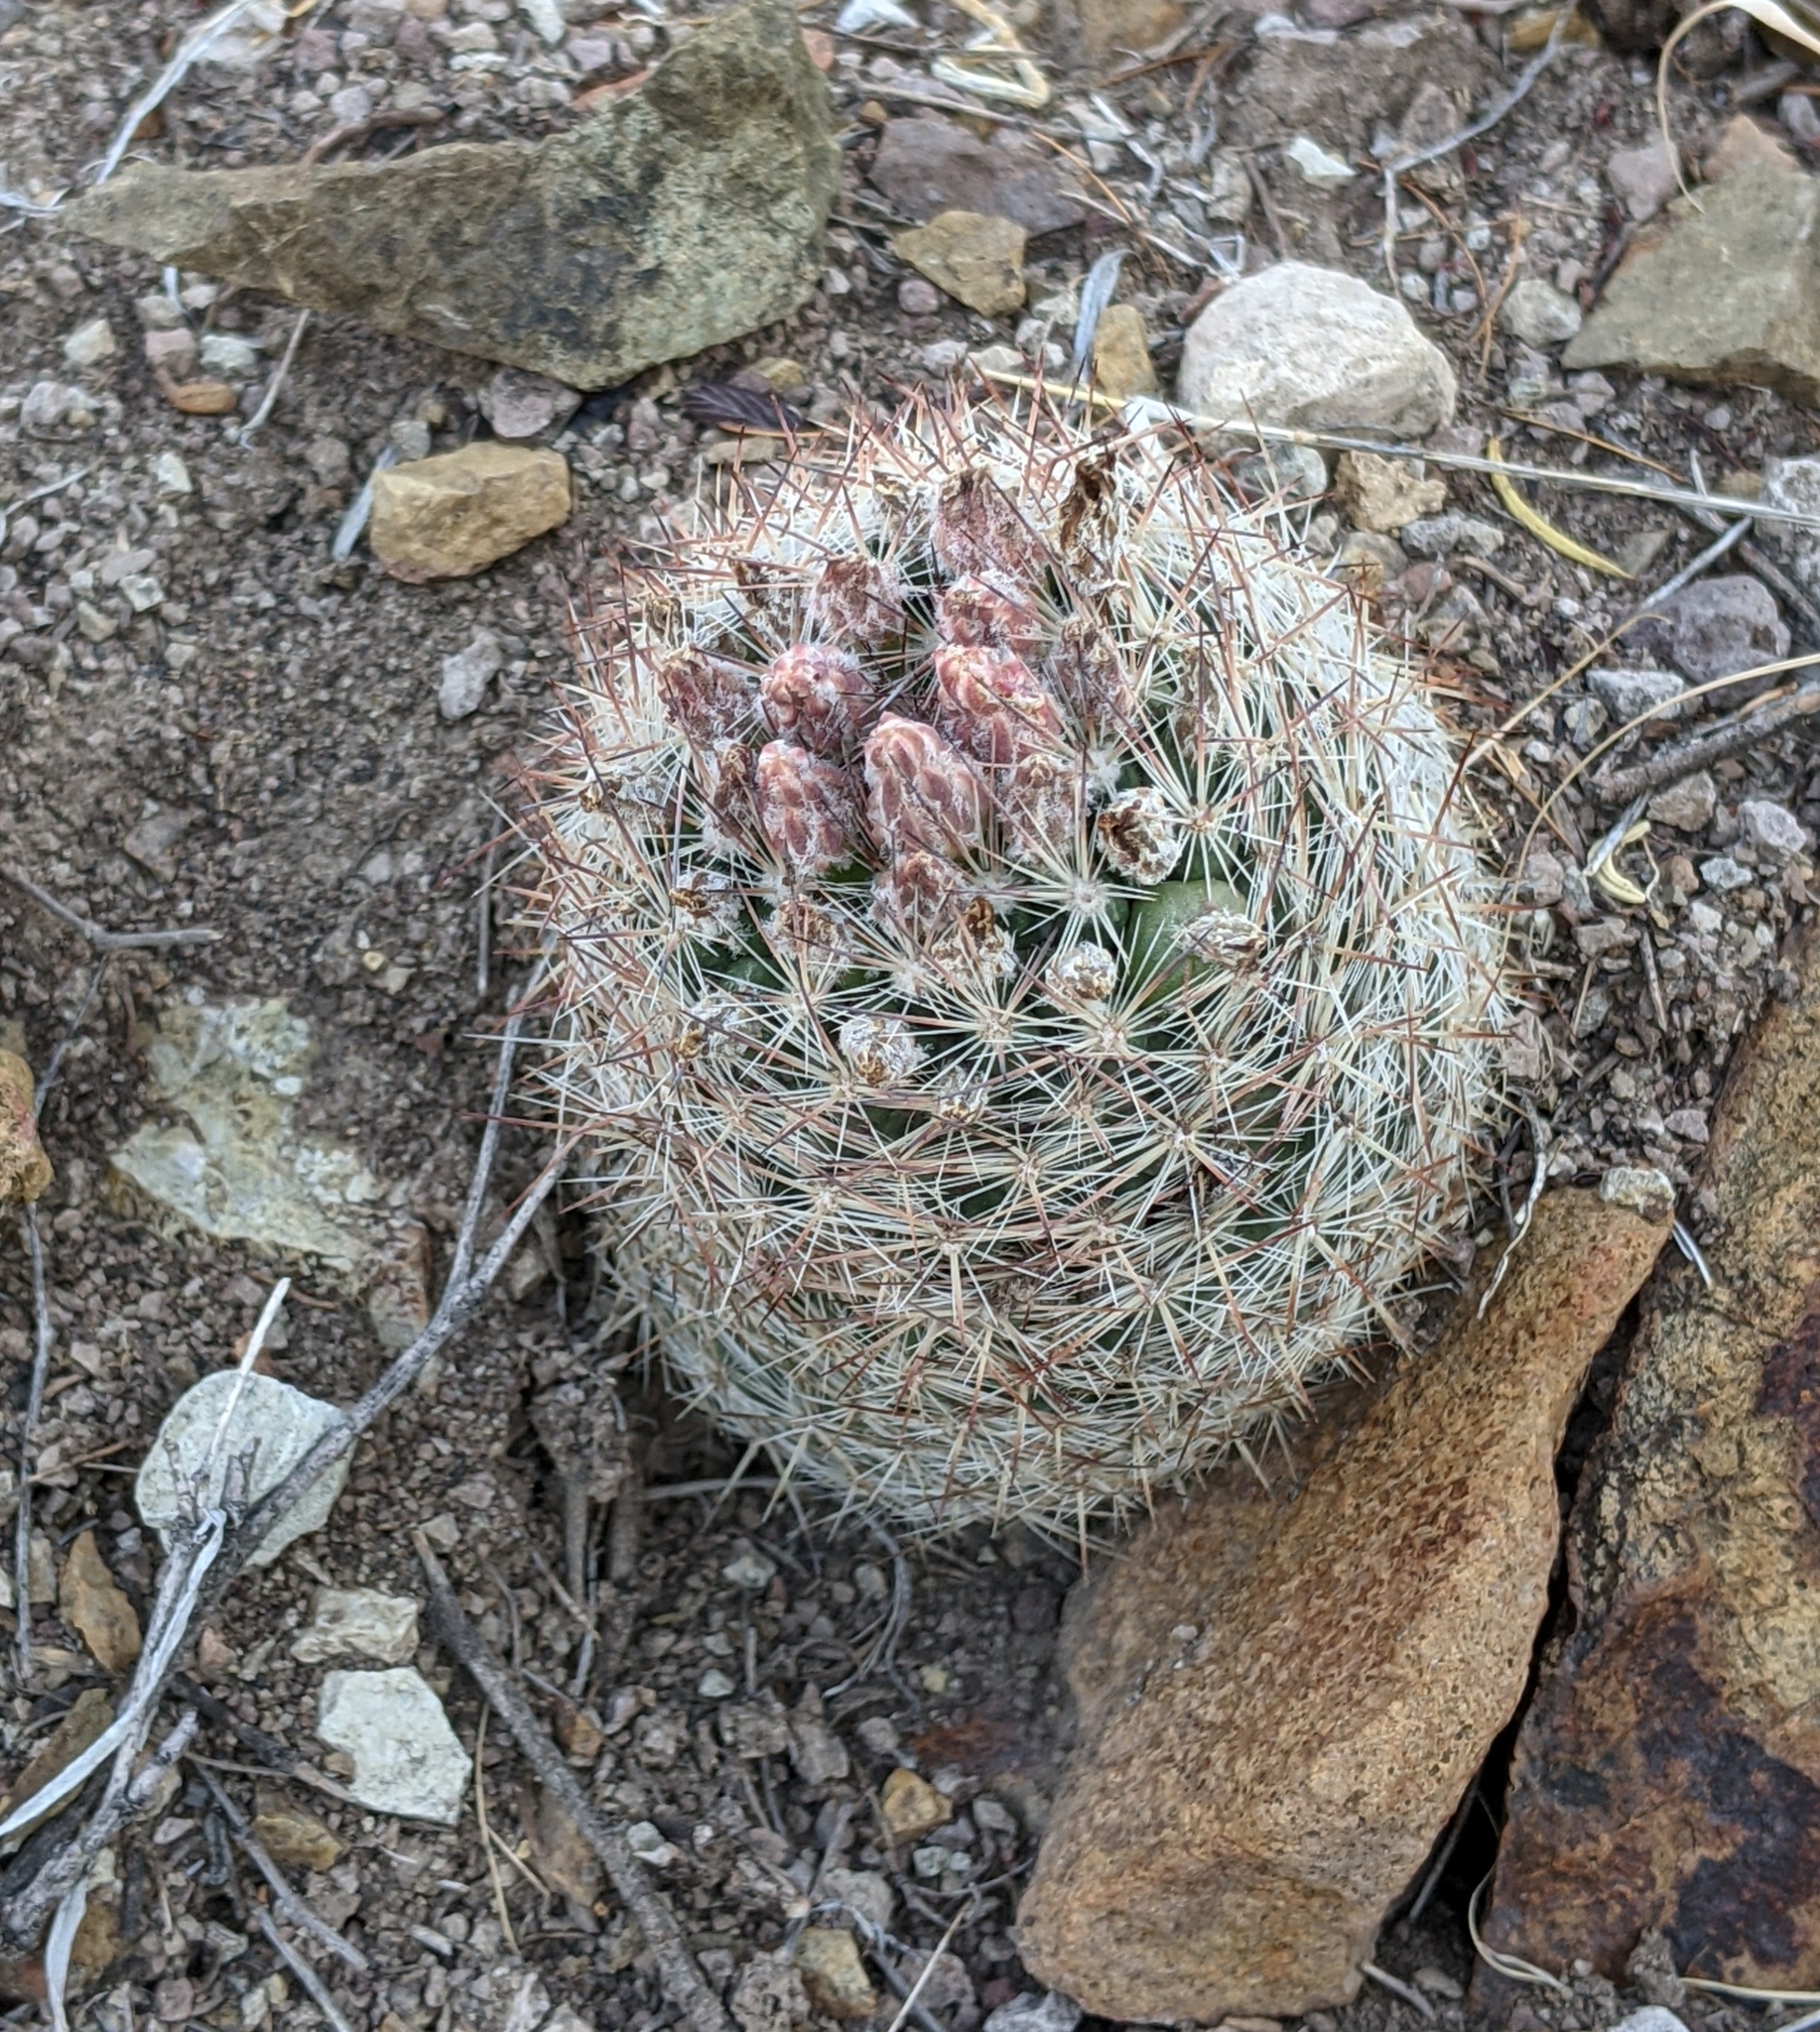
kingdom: Plantae
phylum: Tracheophyta
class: Magnoliopsida
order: Caryophyllales
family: Cactaceae
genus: Pelecyphora
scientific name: Pelecyphora vivipara
